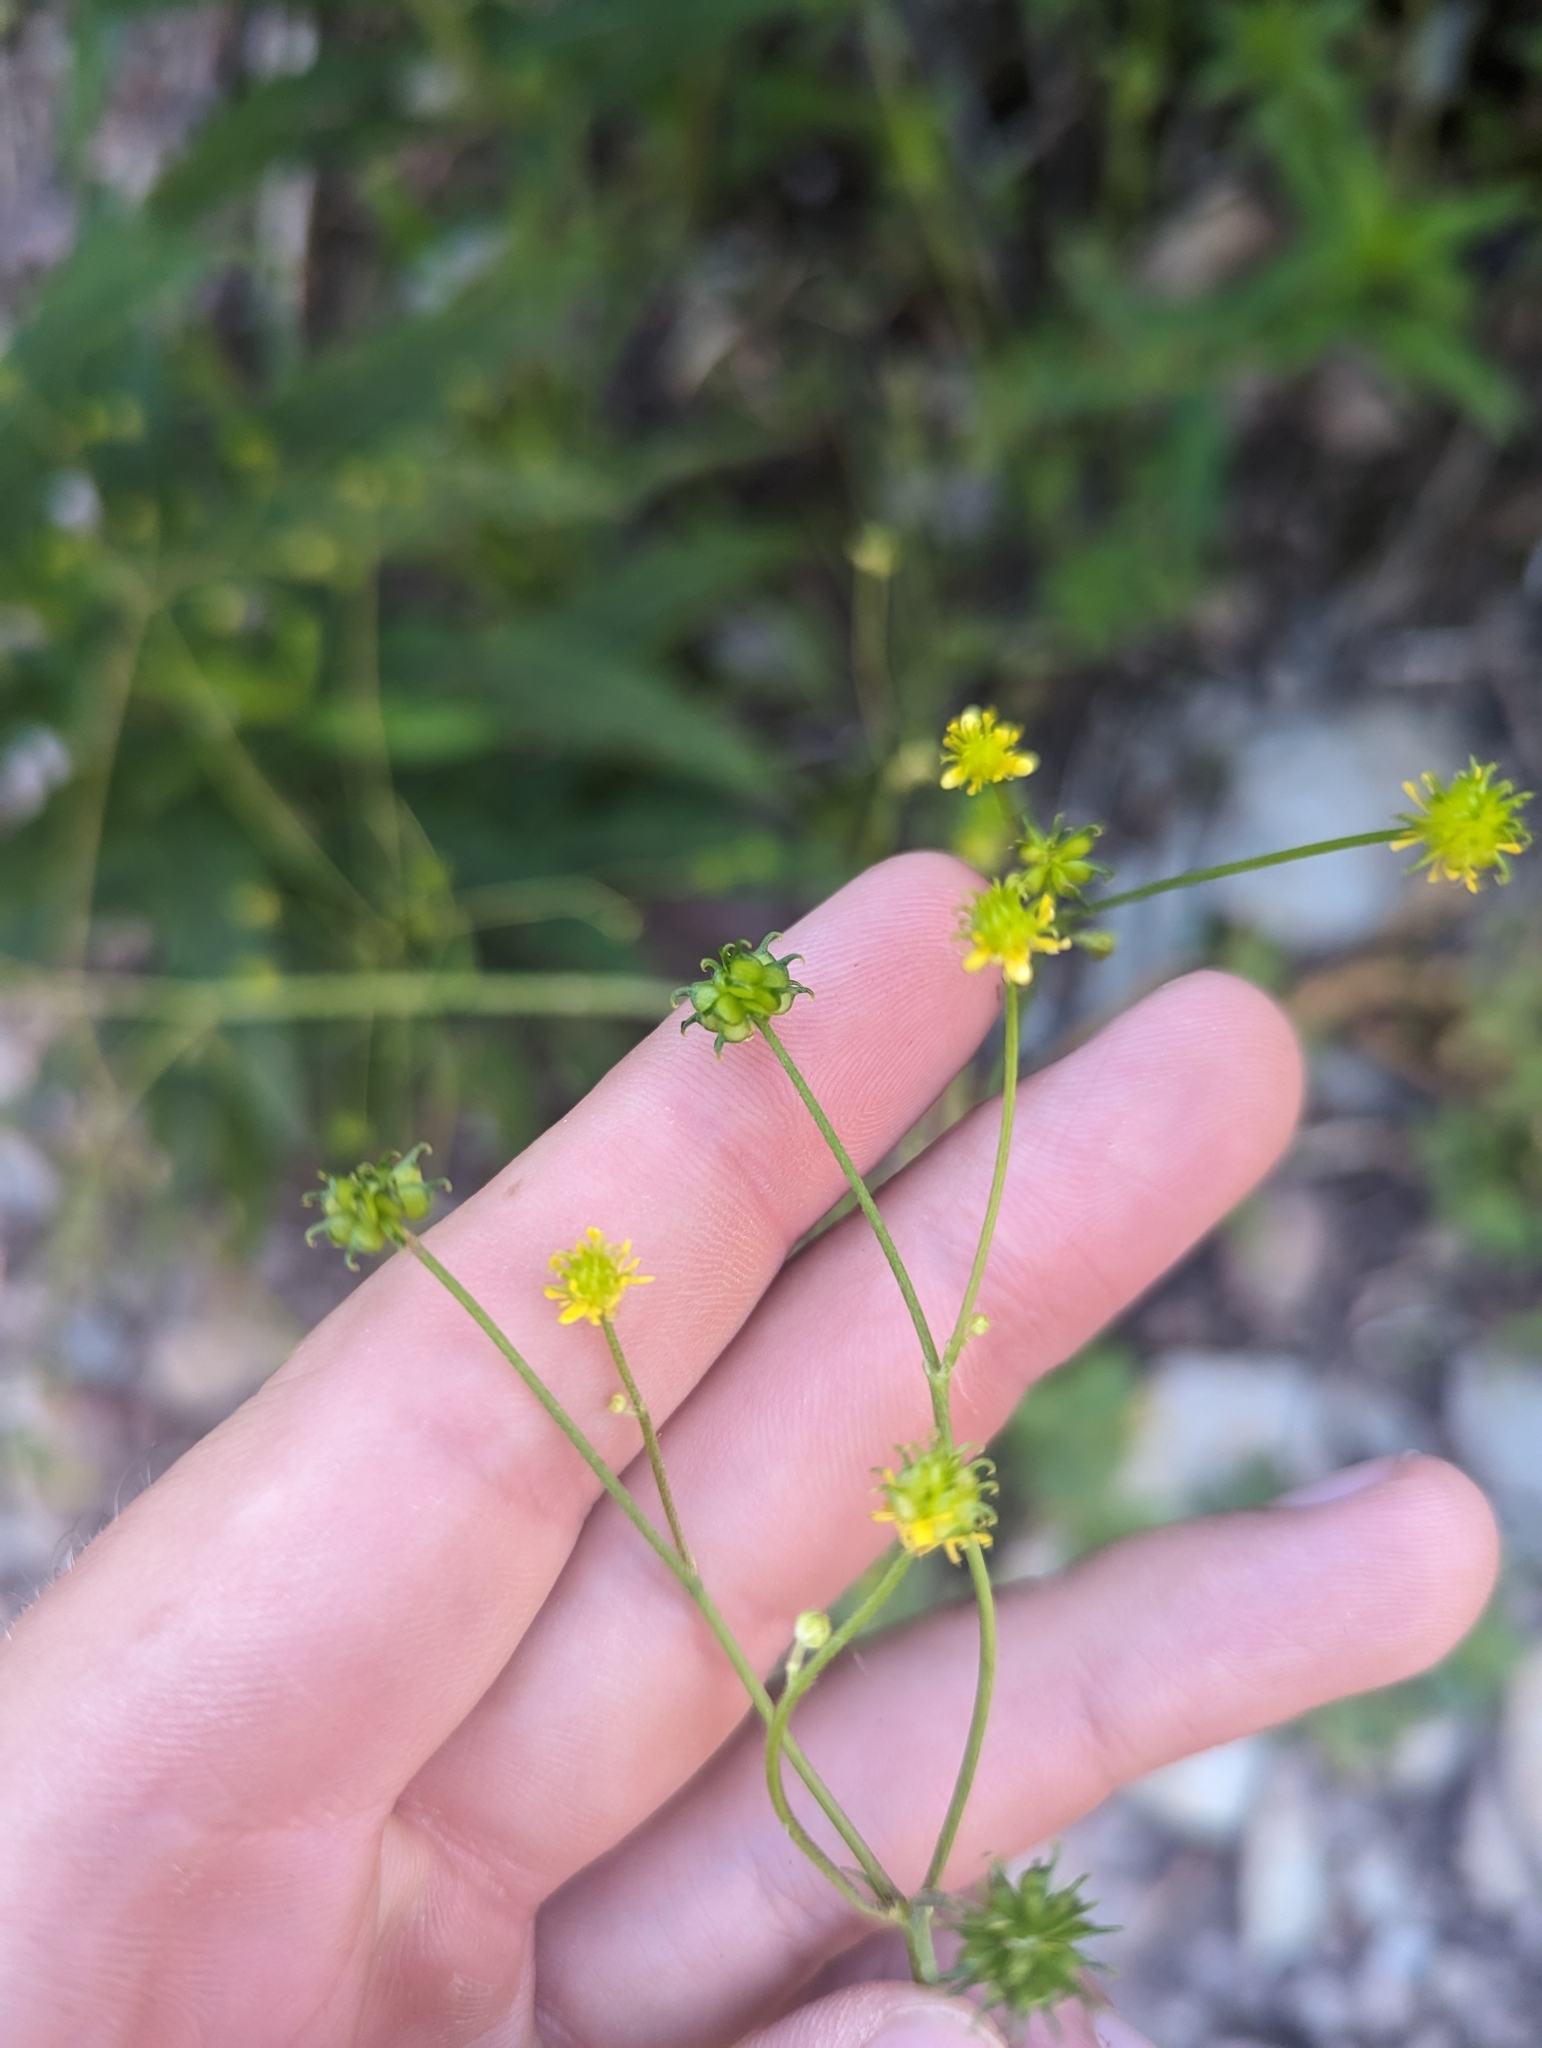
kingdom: Plantae
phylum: Tracheophyta
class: Magnoliopsida
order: Ranunculales
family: Ranunculaceae
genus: Ranunculus
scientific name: Ranunculus uncinatus
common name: Little buttercup
